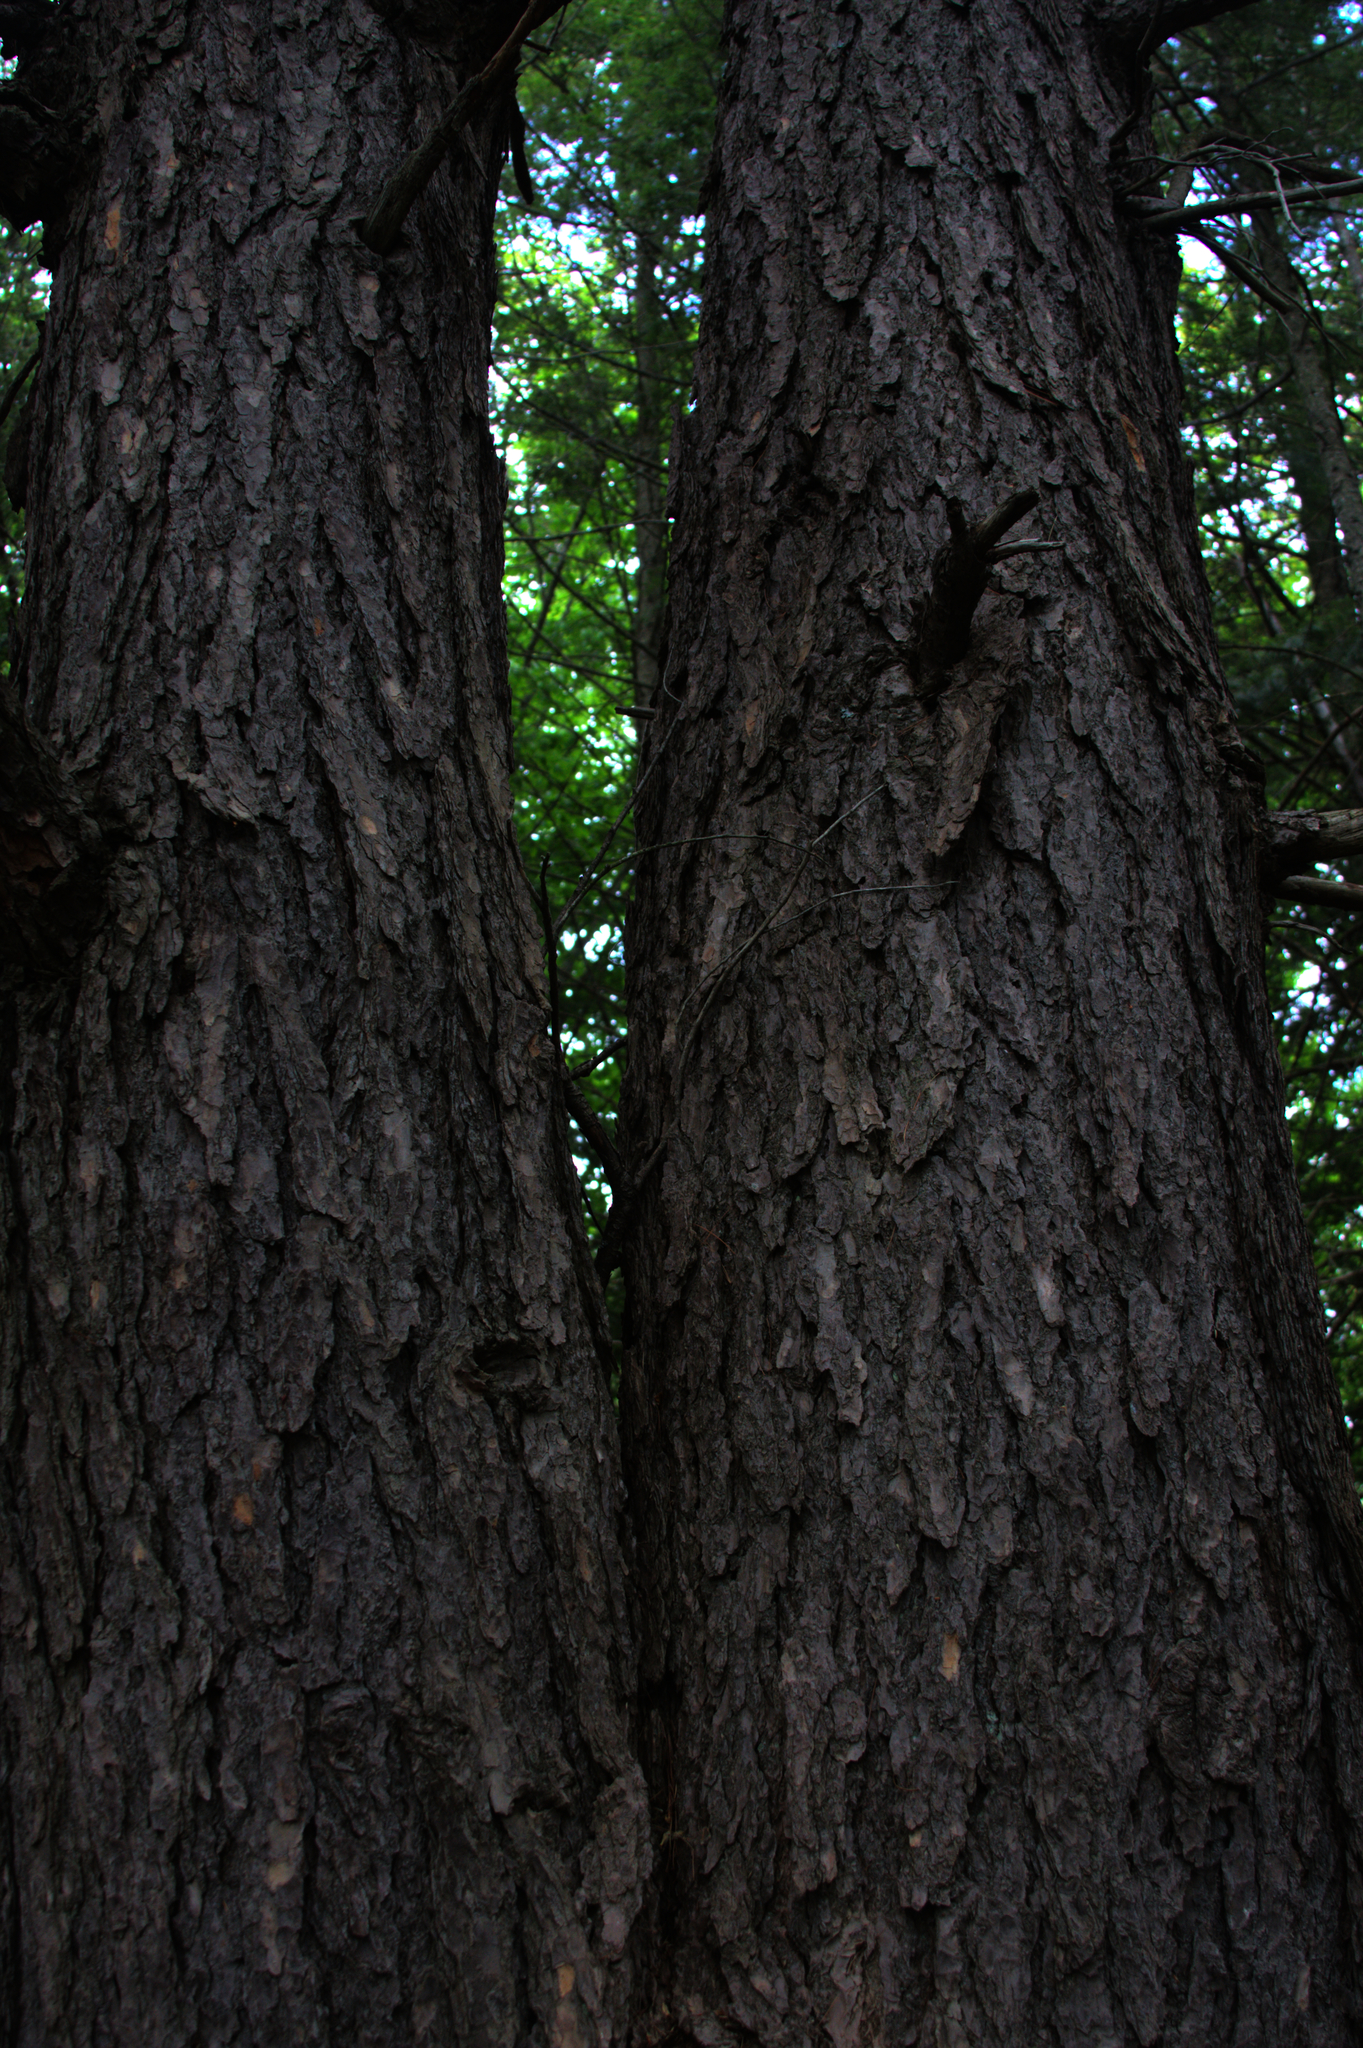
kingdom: Plantae
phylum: Tracheophyta
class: Pinopsida
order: Pinales
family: Pinaceae
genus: Tsuga
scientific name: Tsuga canadensis
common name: Eastern hemlock
